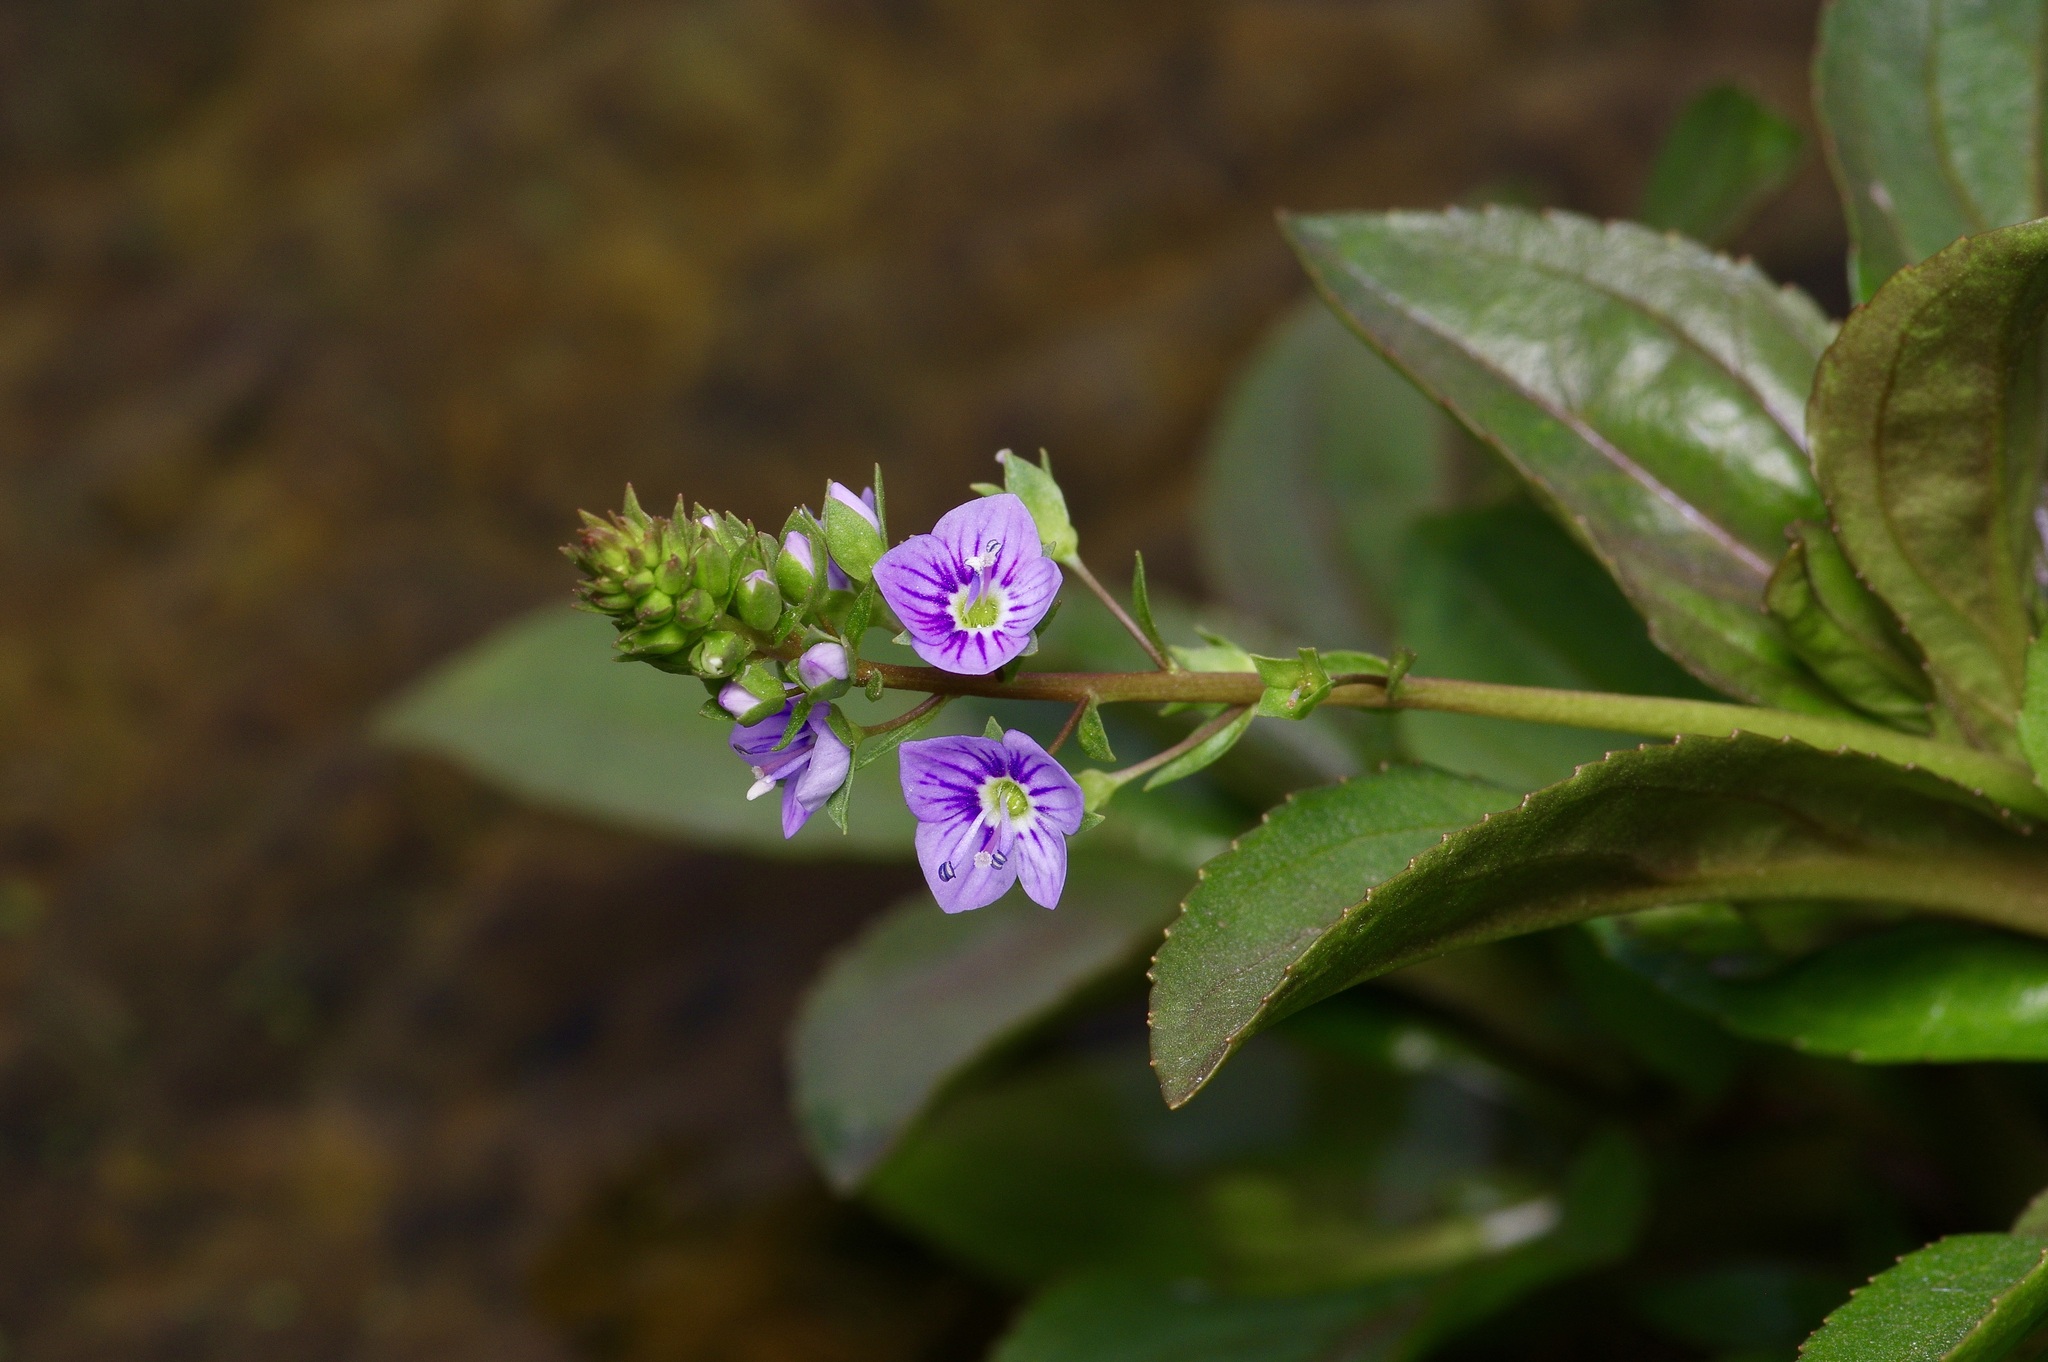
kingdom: Plantae
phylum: Tracheophyta
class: Magnoliopsida
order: Lamiales
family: Plantaginaceae
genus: Veronica
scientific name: Veronica anagallis-aquatica
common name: Water speedwell
